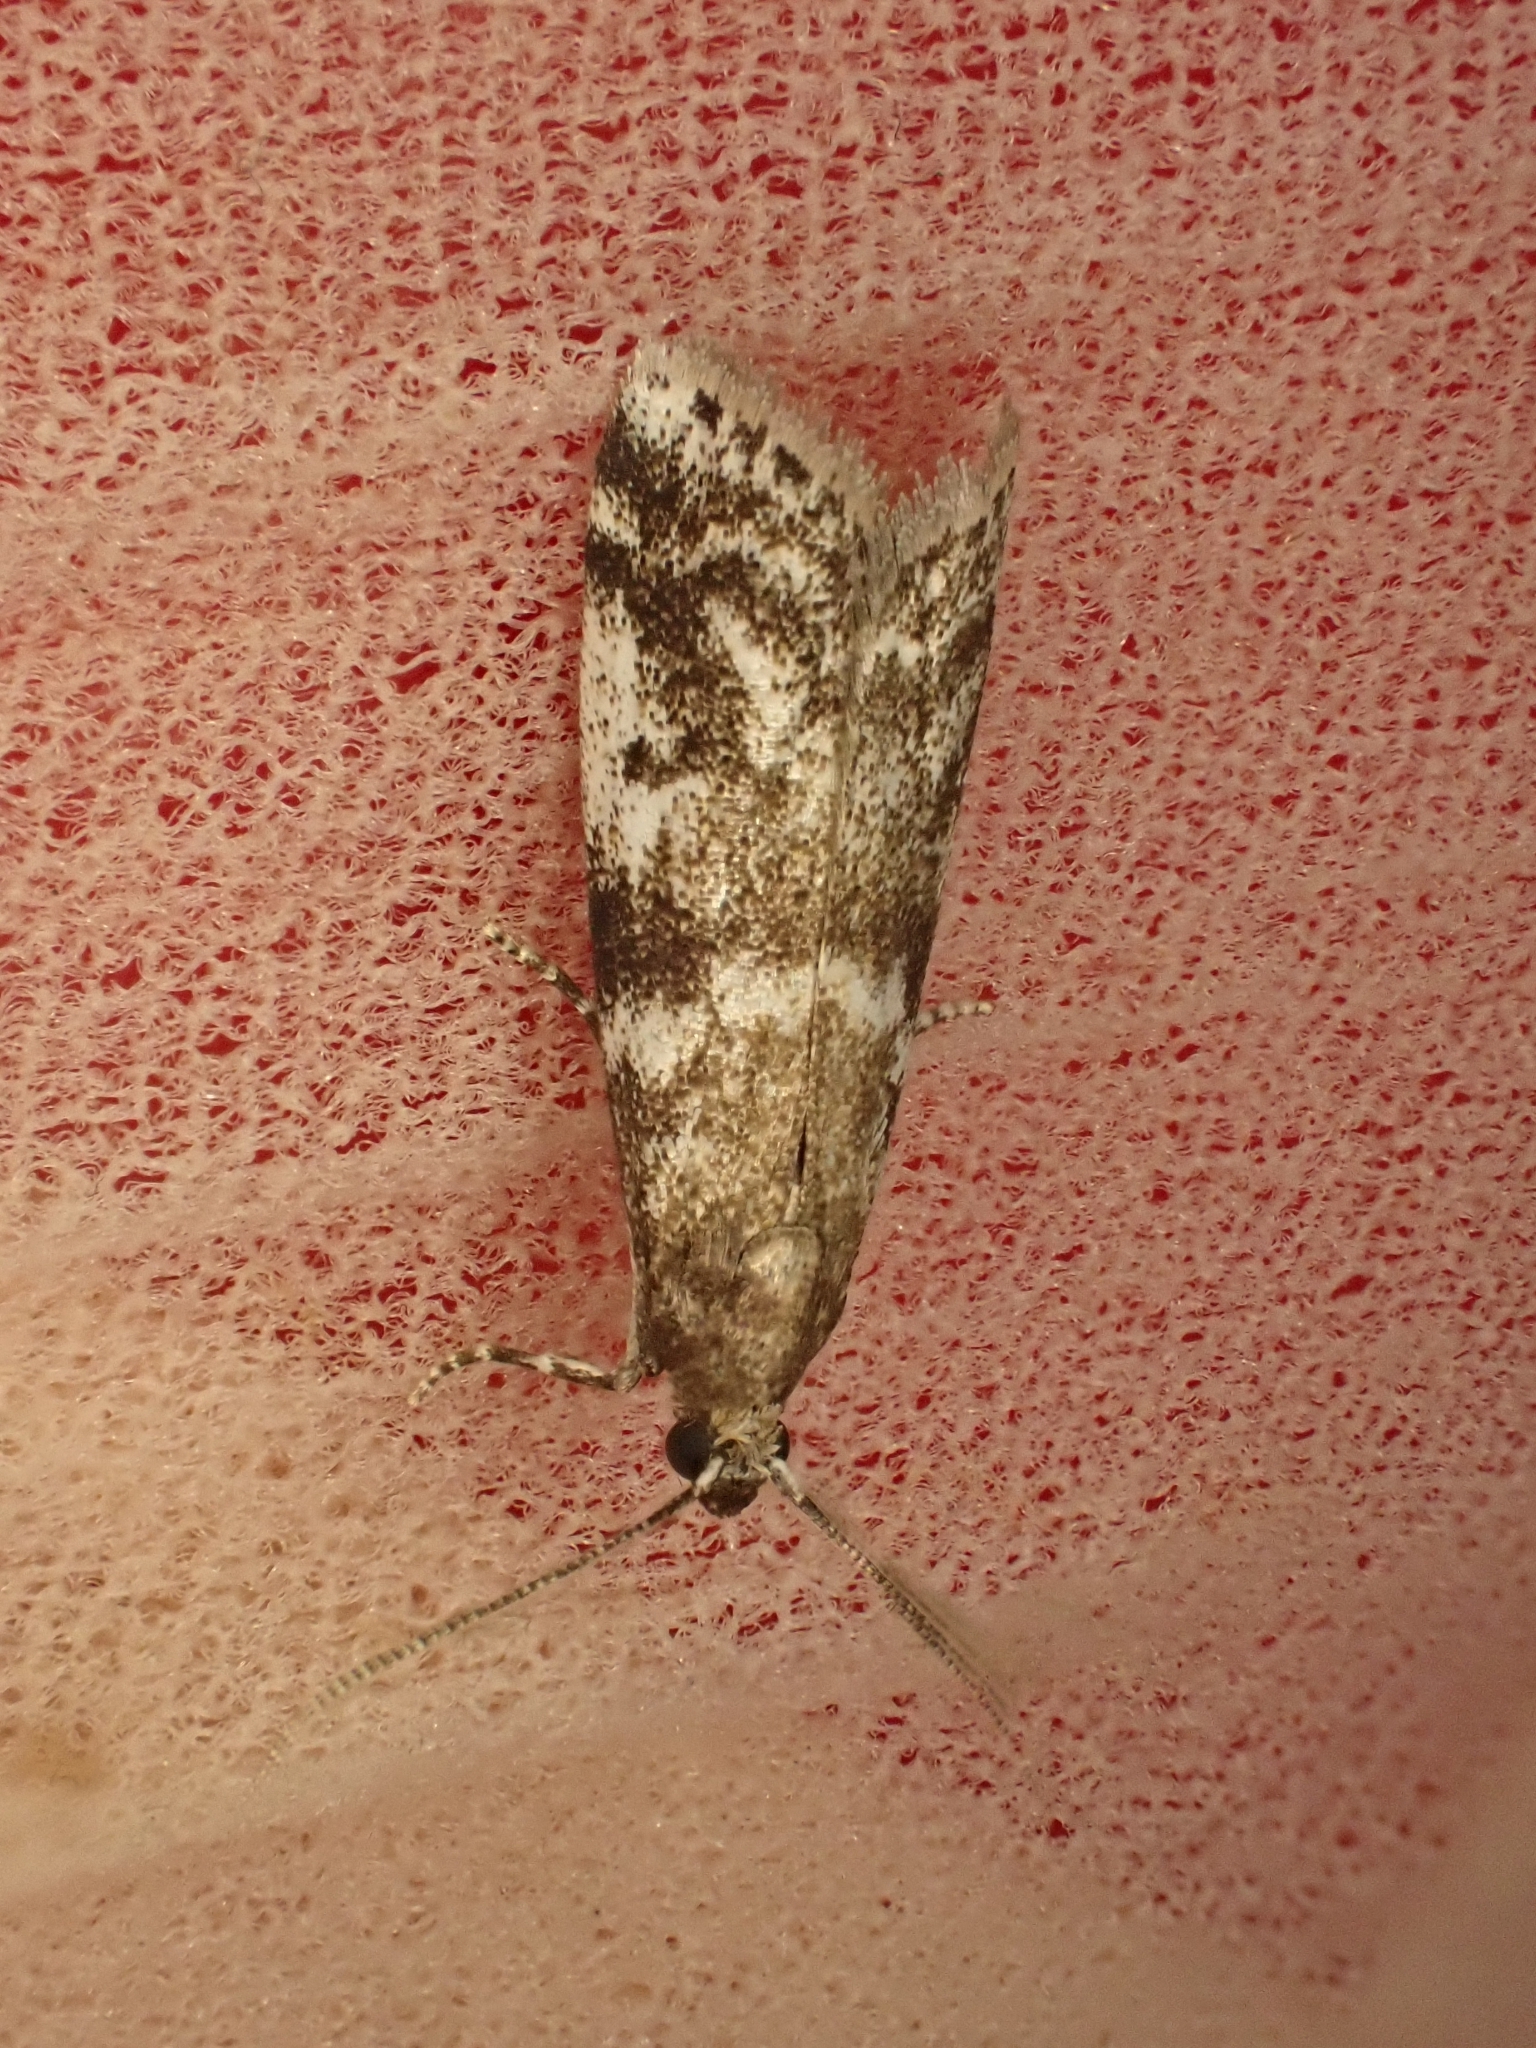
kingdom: Animalia
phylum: Arthropoda
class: Insecta
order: Lepidoptera
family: Pyralidae
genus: Assara
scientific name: Assara terebrella
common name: Dark spruce knot-horn
